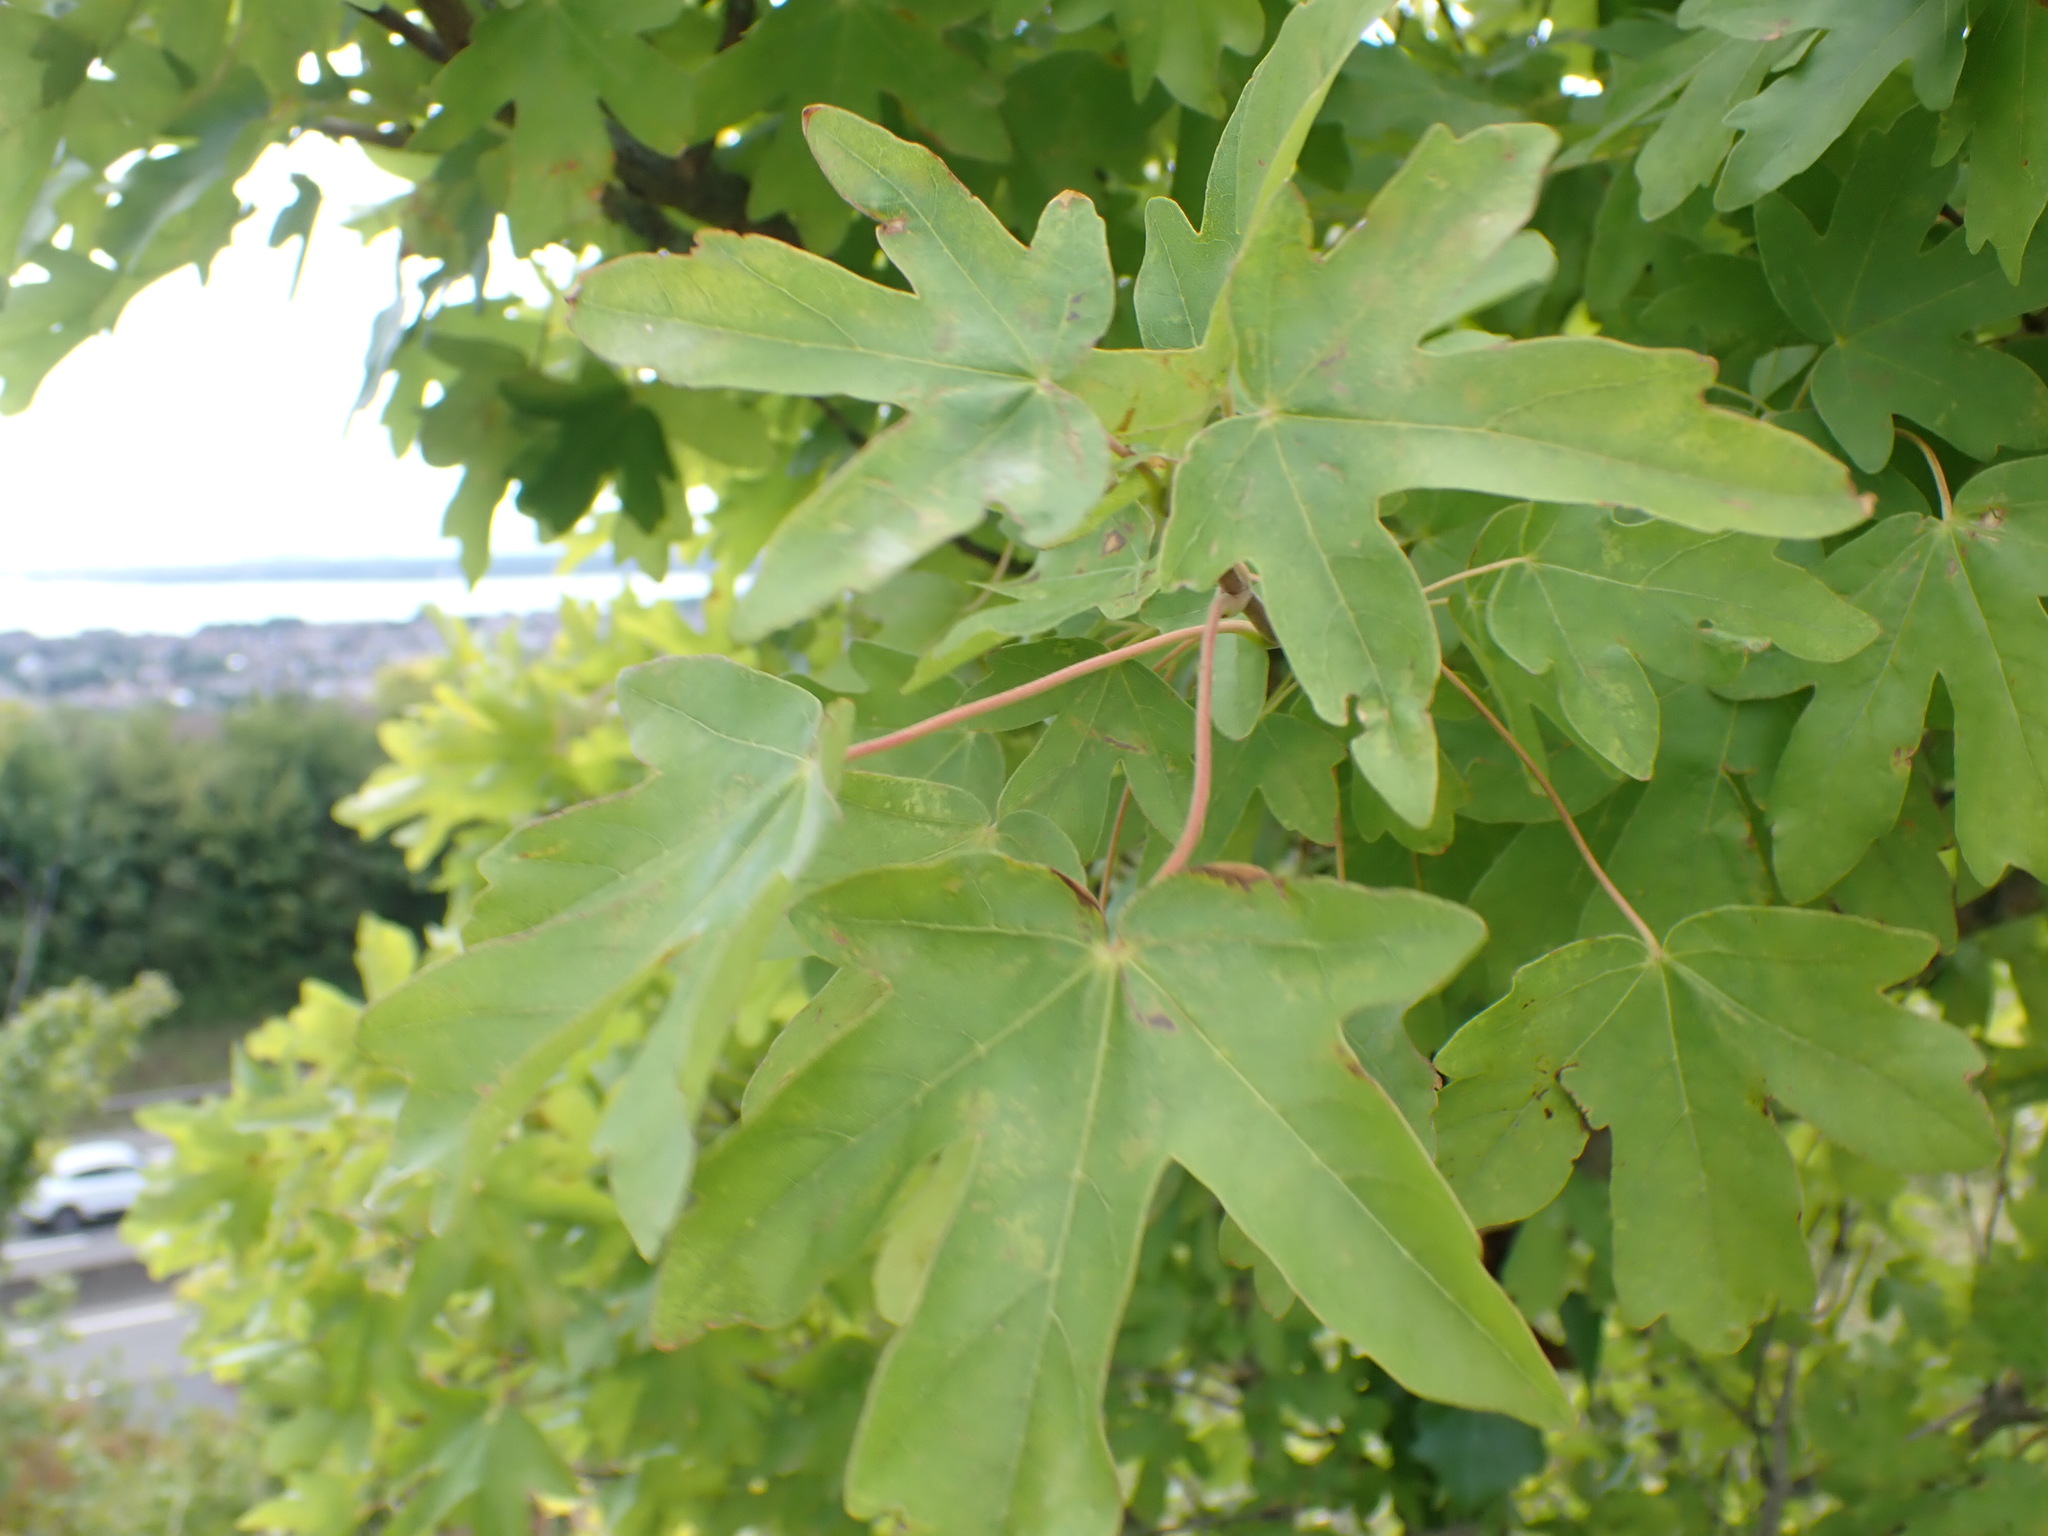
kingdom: Plantae
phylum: Tracheophyta
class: Magnoliopsida
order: Sapindales
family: Sapindaceae
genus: Acer
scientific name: Acer campestre
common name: Field maple
